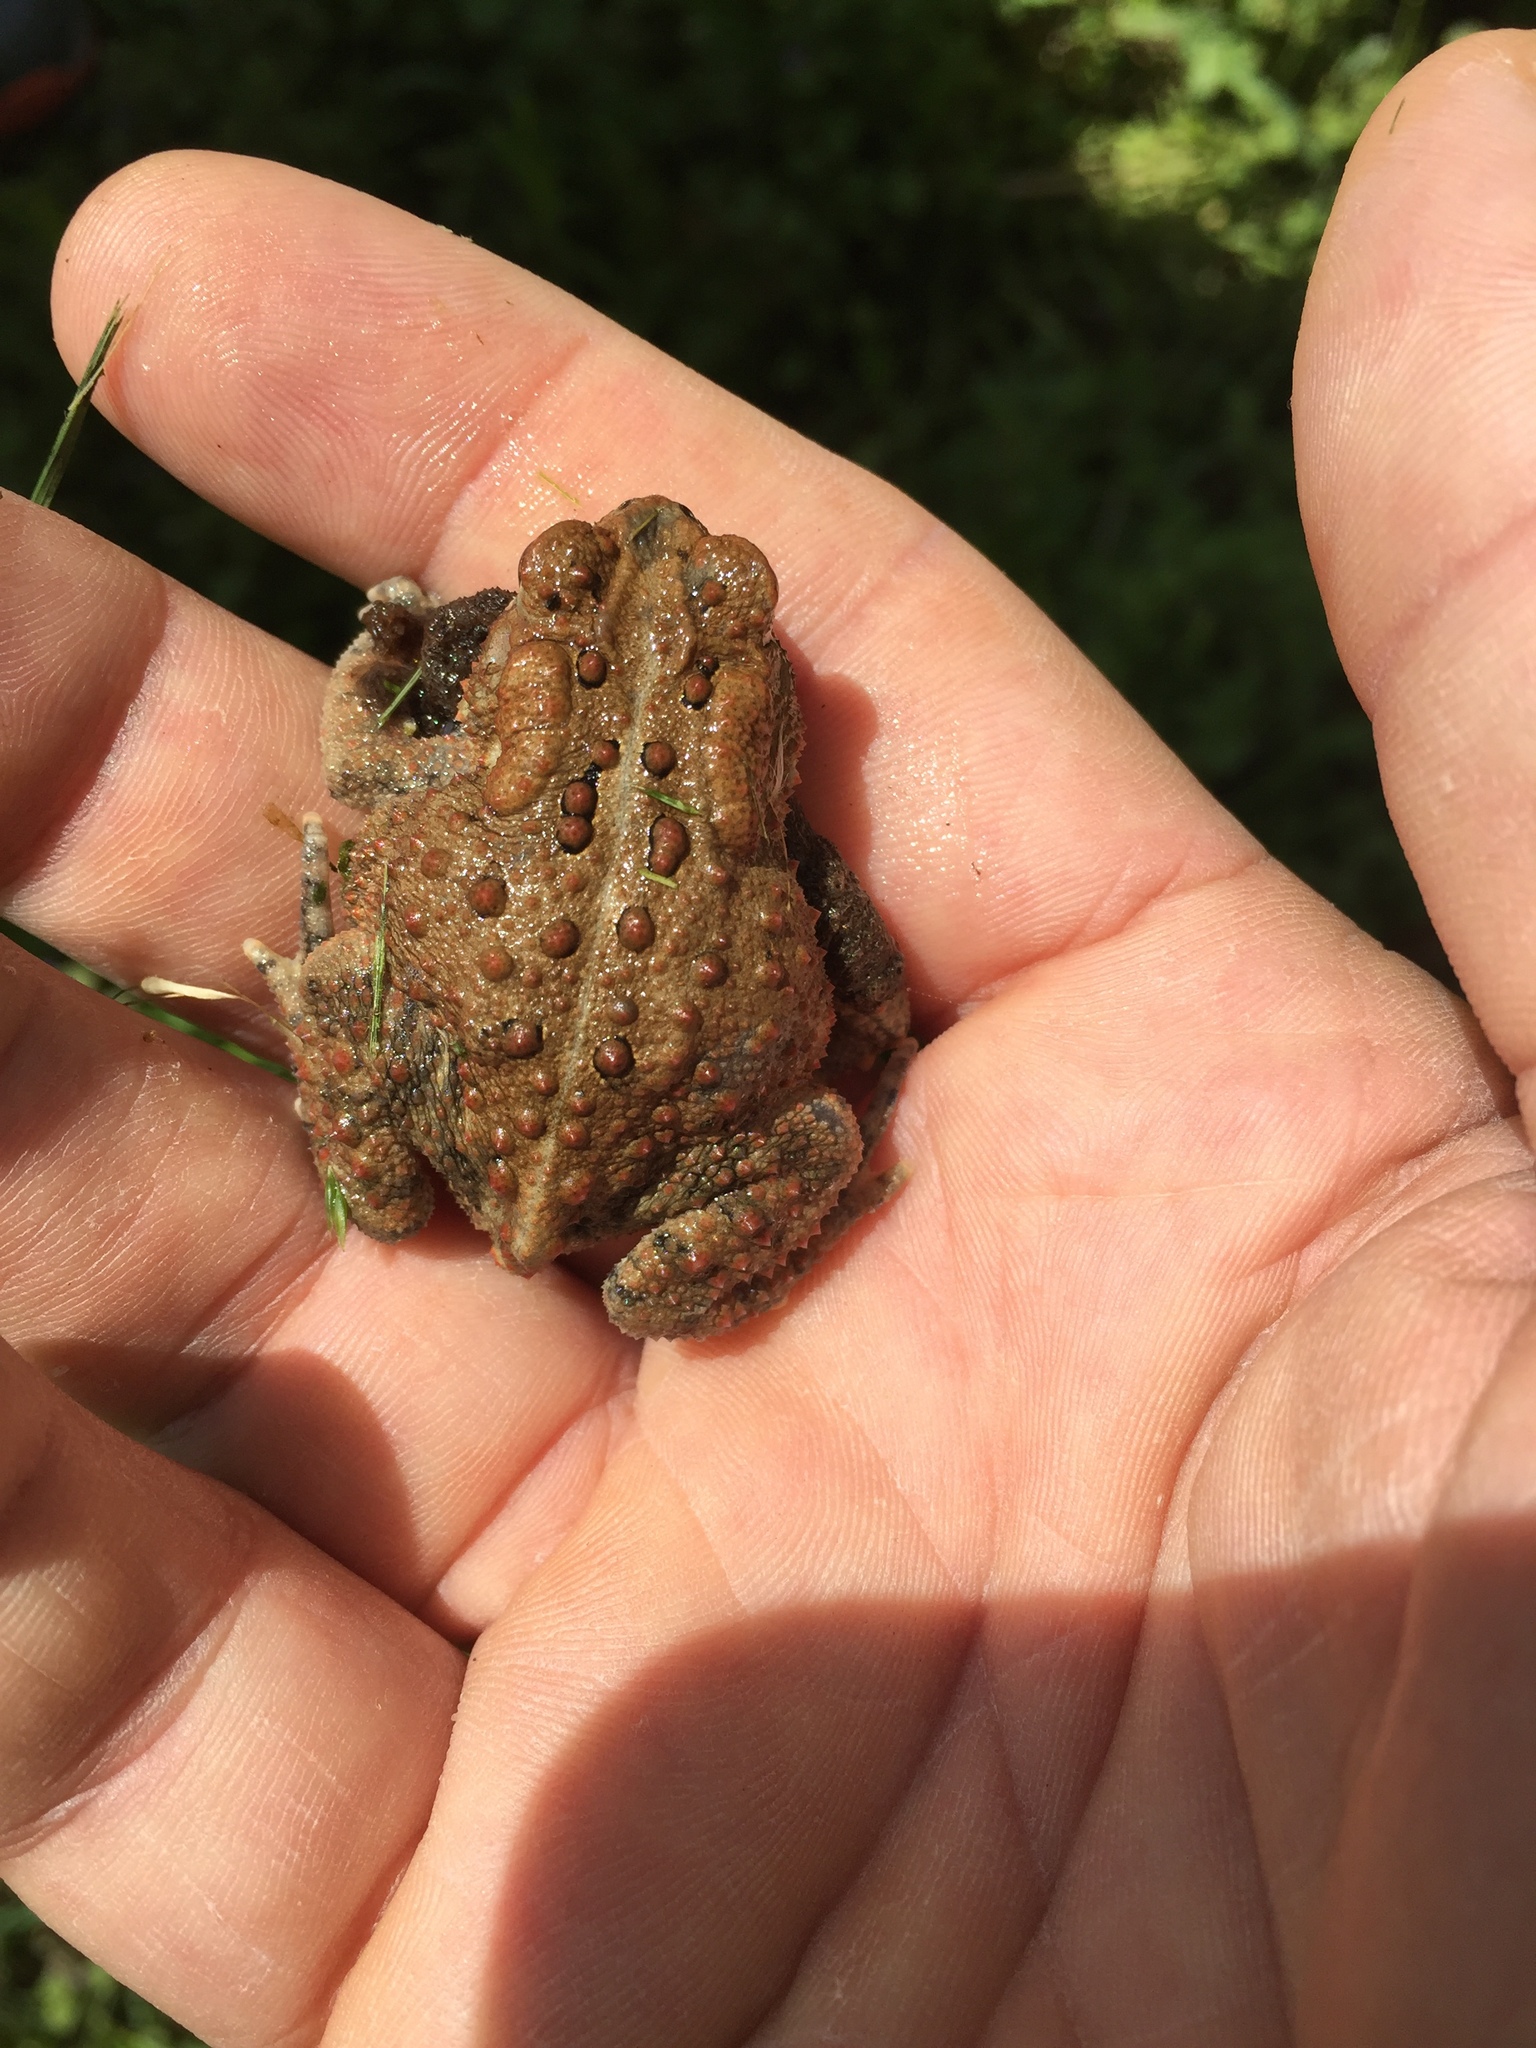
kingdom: Animalia
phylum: Chordata
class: Amphibia
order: Anura
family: Bufonidae
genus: Anaxyrus
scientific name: Anaxyrus americanus
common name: American toad
